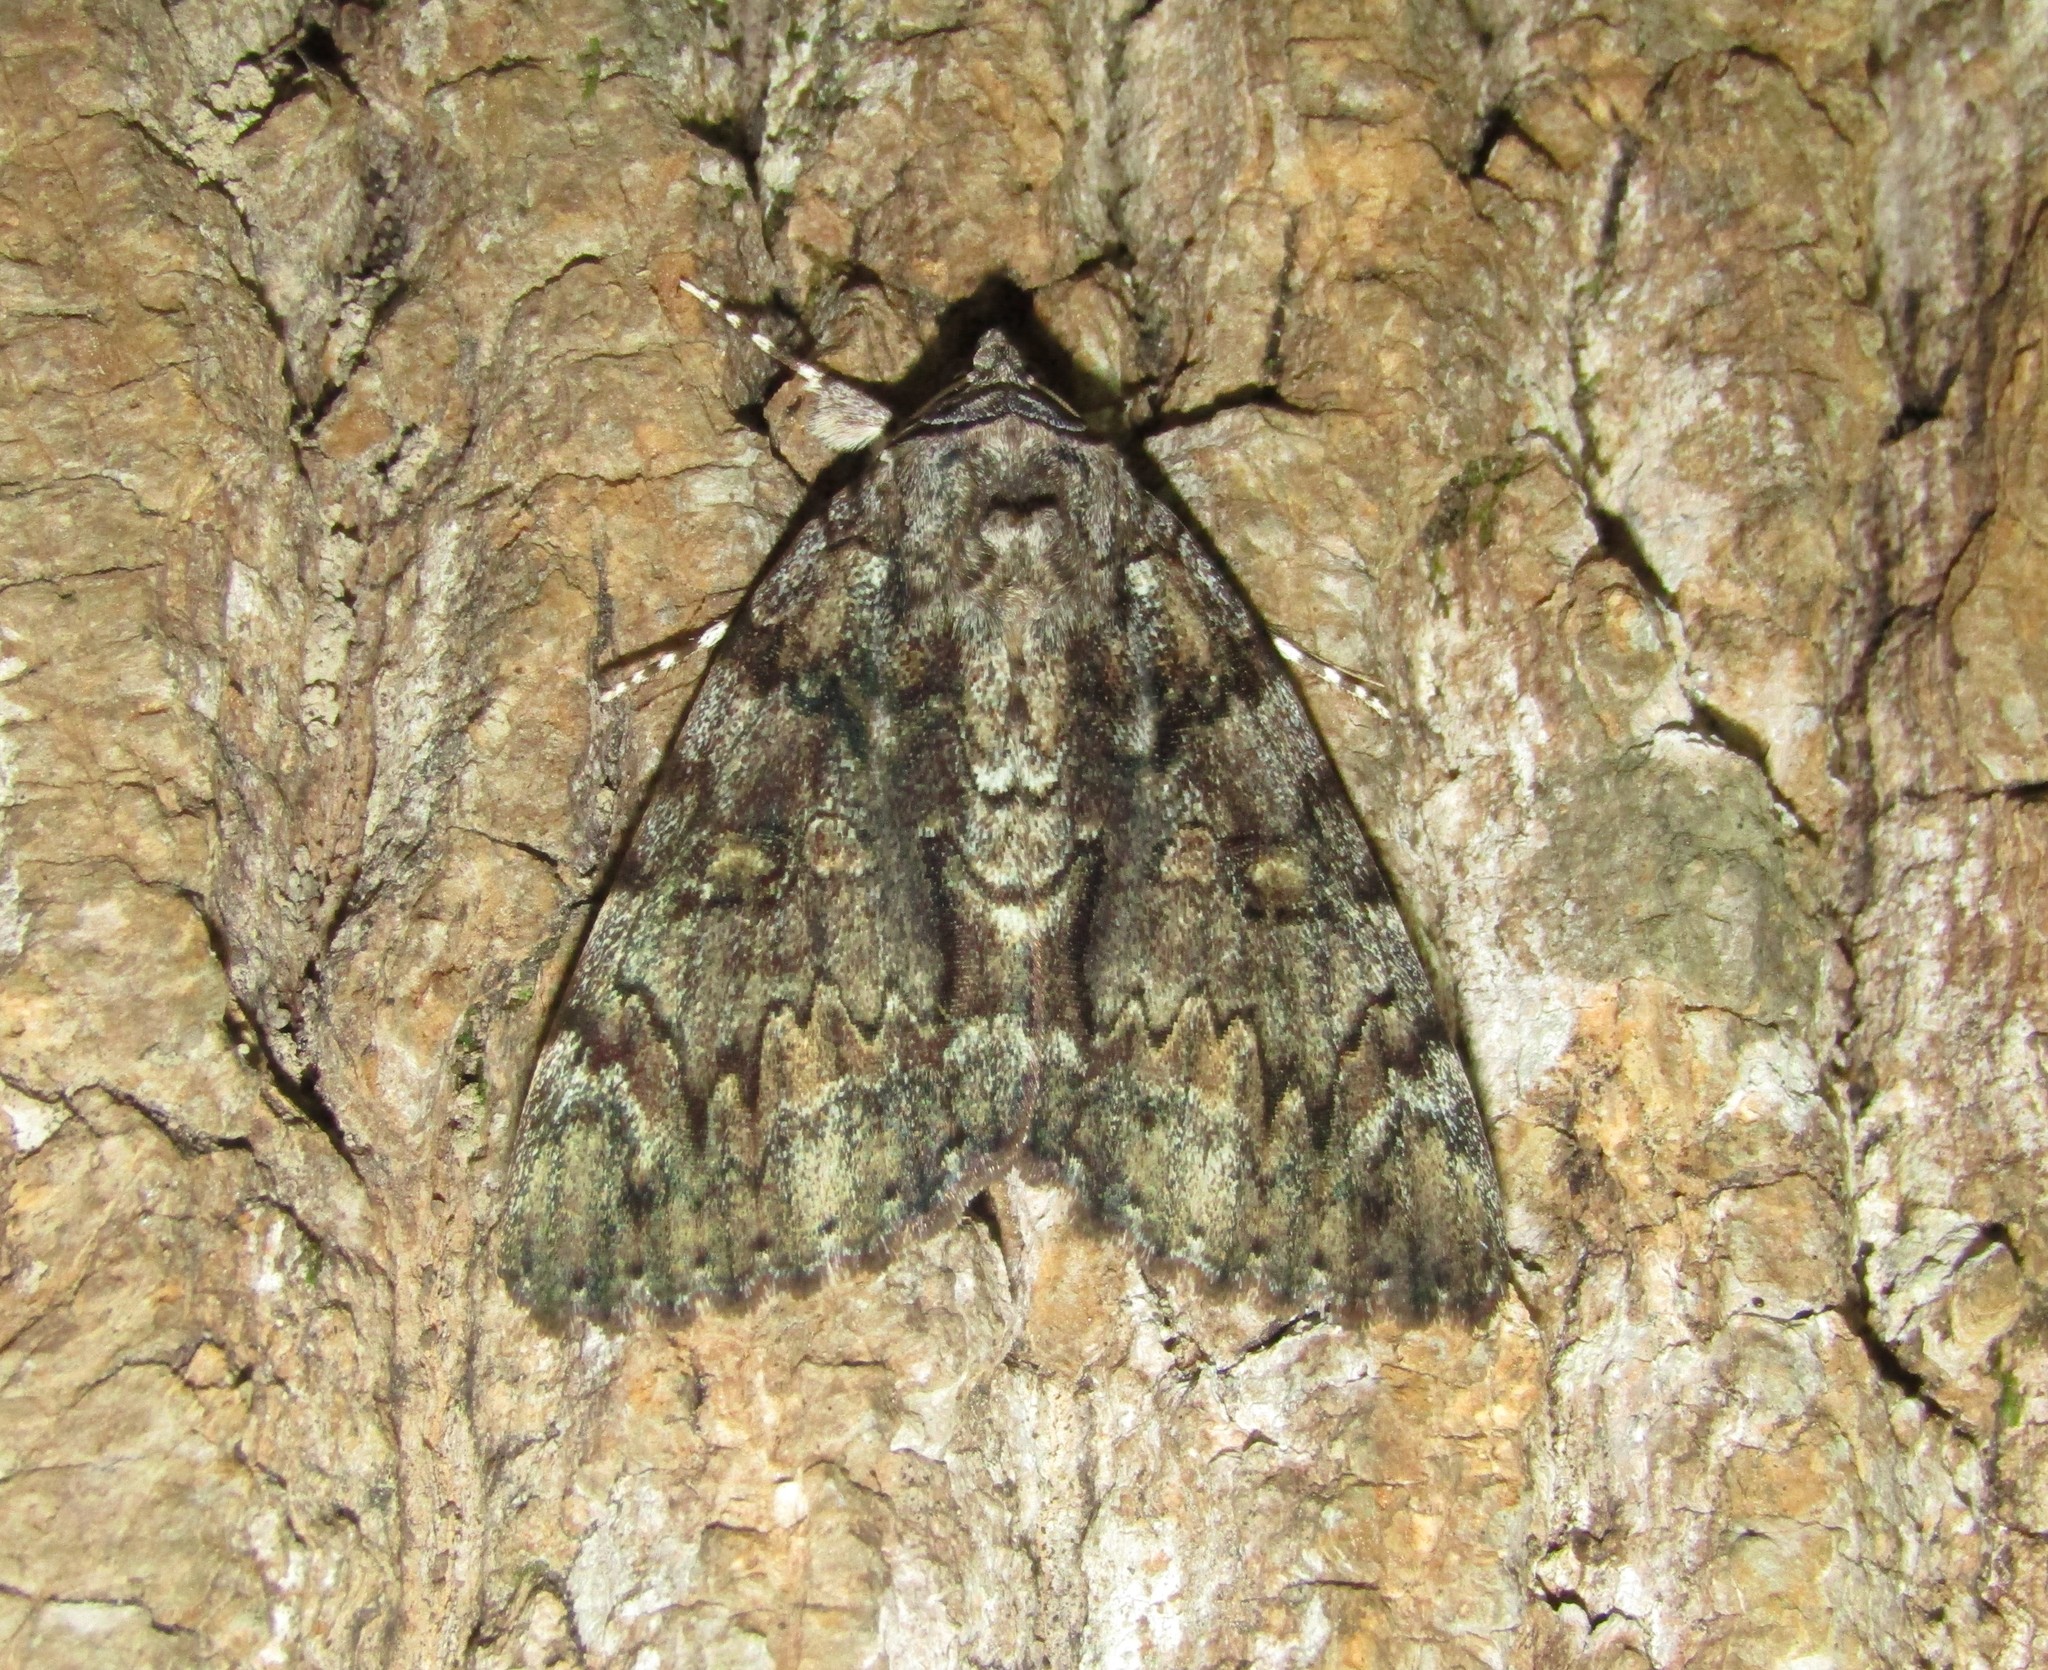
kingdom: Animalia
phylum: Arthropoda
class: Insecta
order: Lepidoptera
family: Erebidae
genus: Catocala
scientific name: Catocala lacrymosa
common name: Tearful underwing
